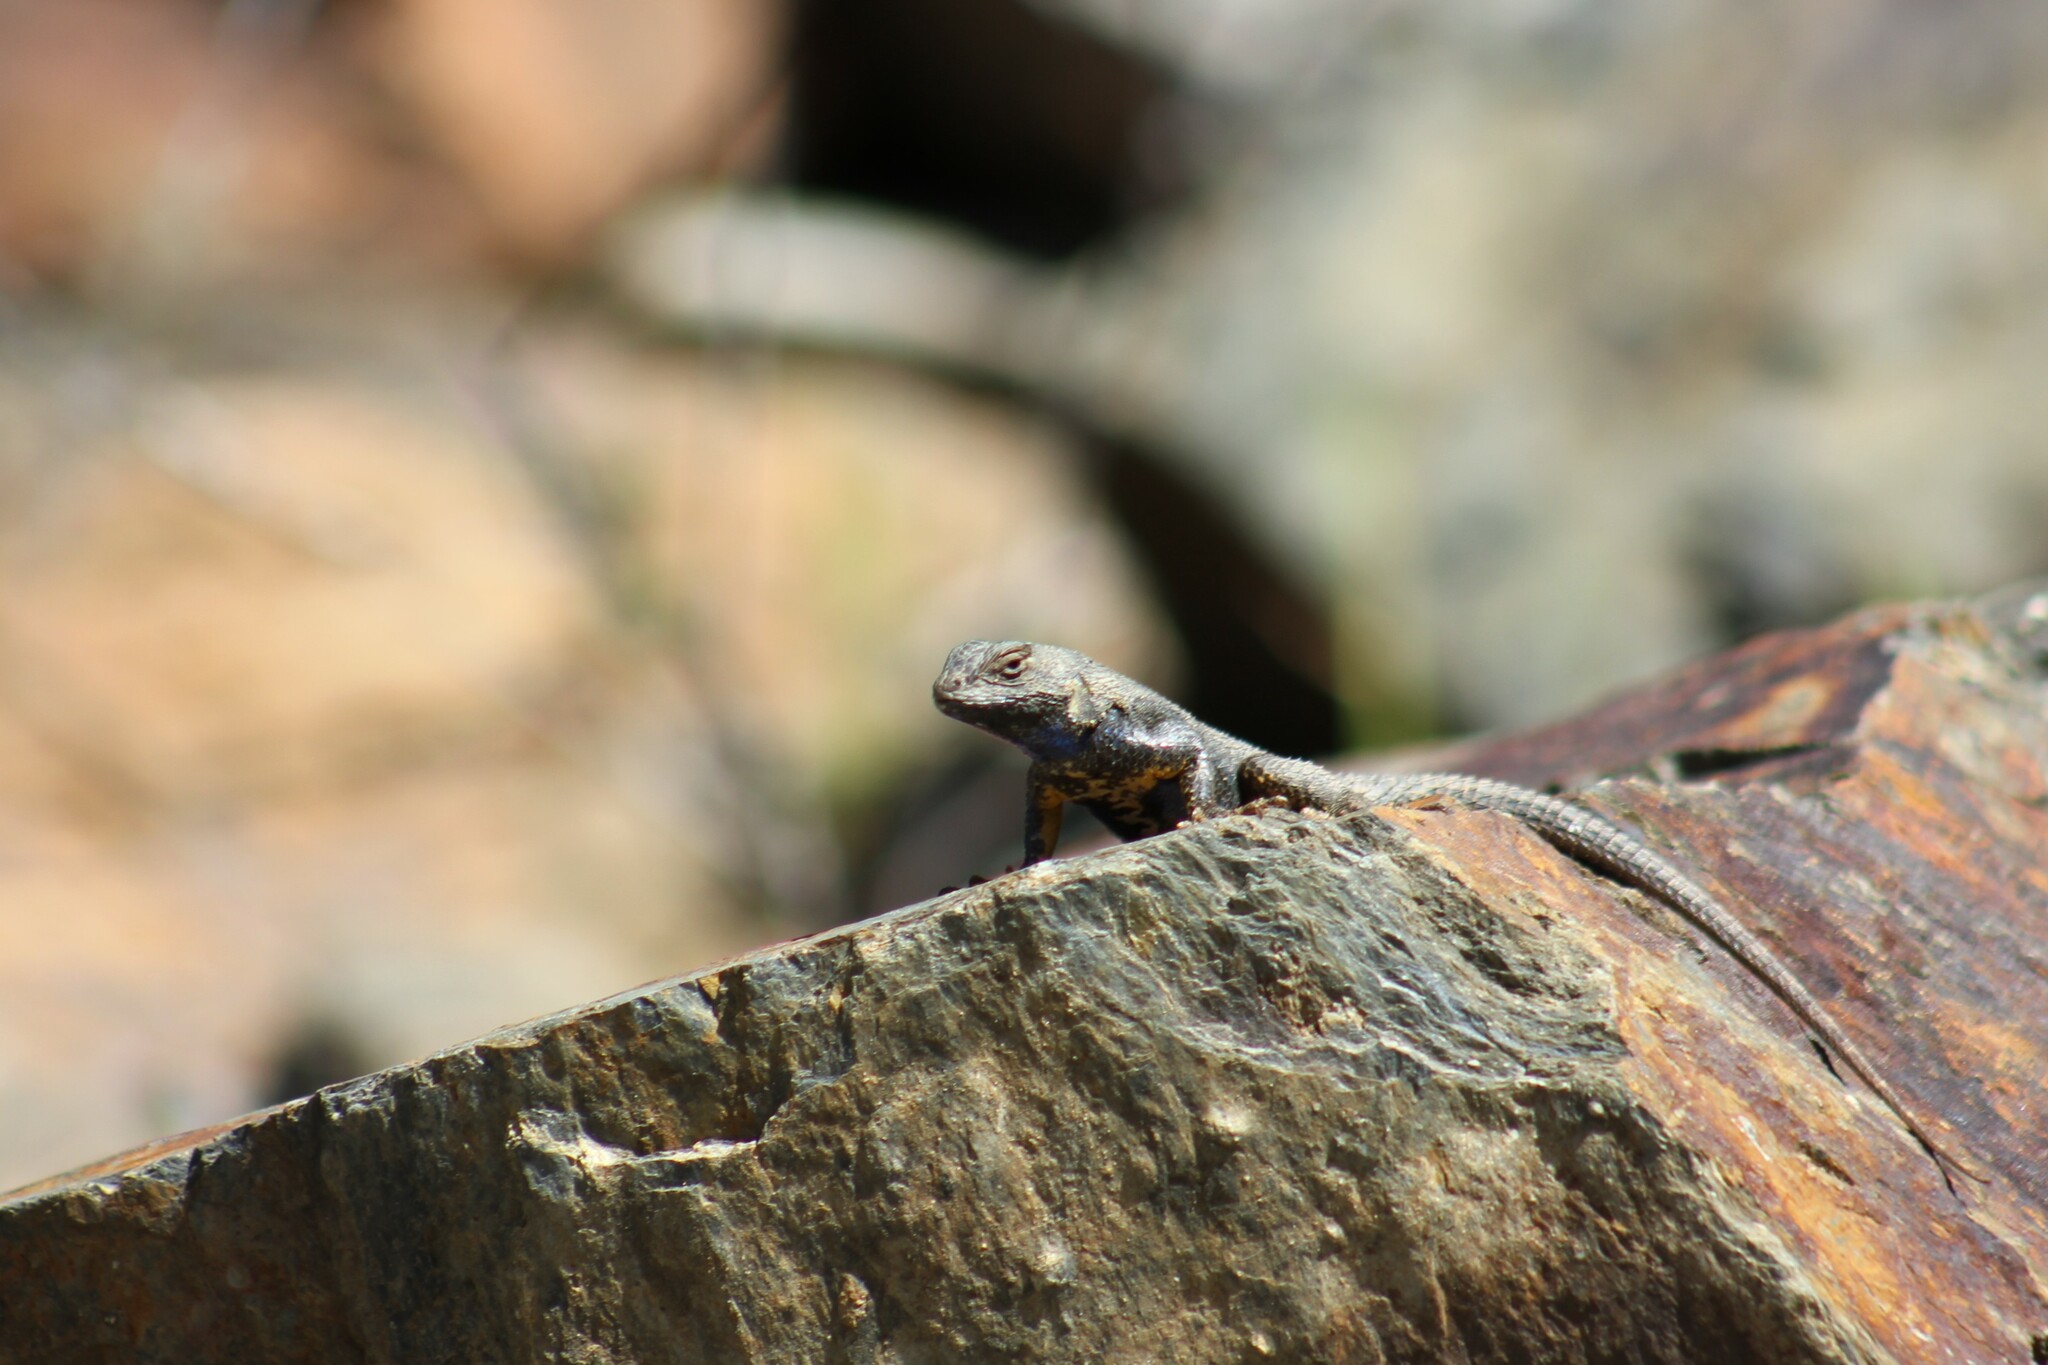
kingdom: Animalia
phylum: Chordata
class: Squamata
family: Phrynosomatidae
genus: Sceloporus
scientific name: Sceloporus occidentalis
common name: Western fence lizard
